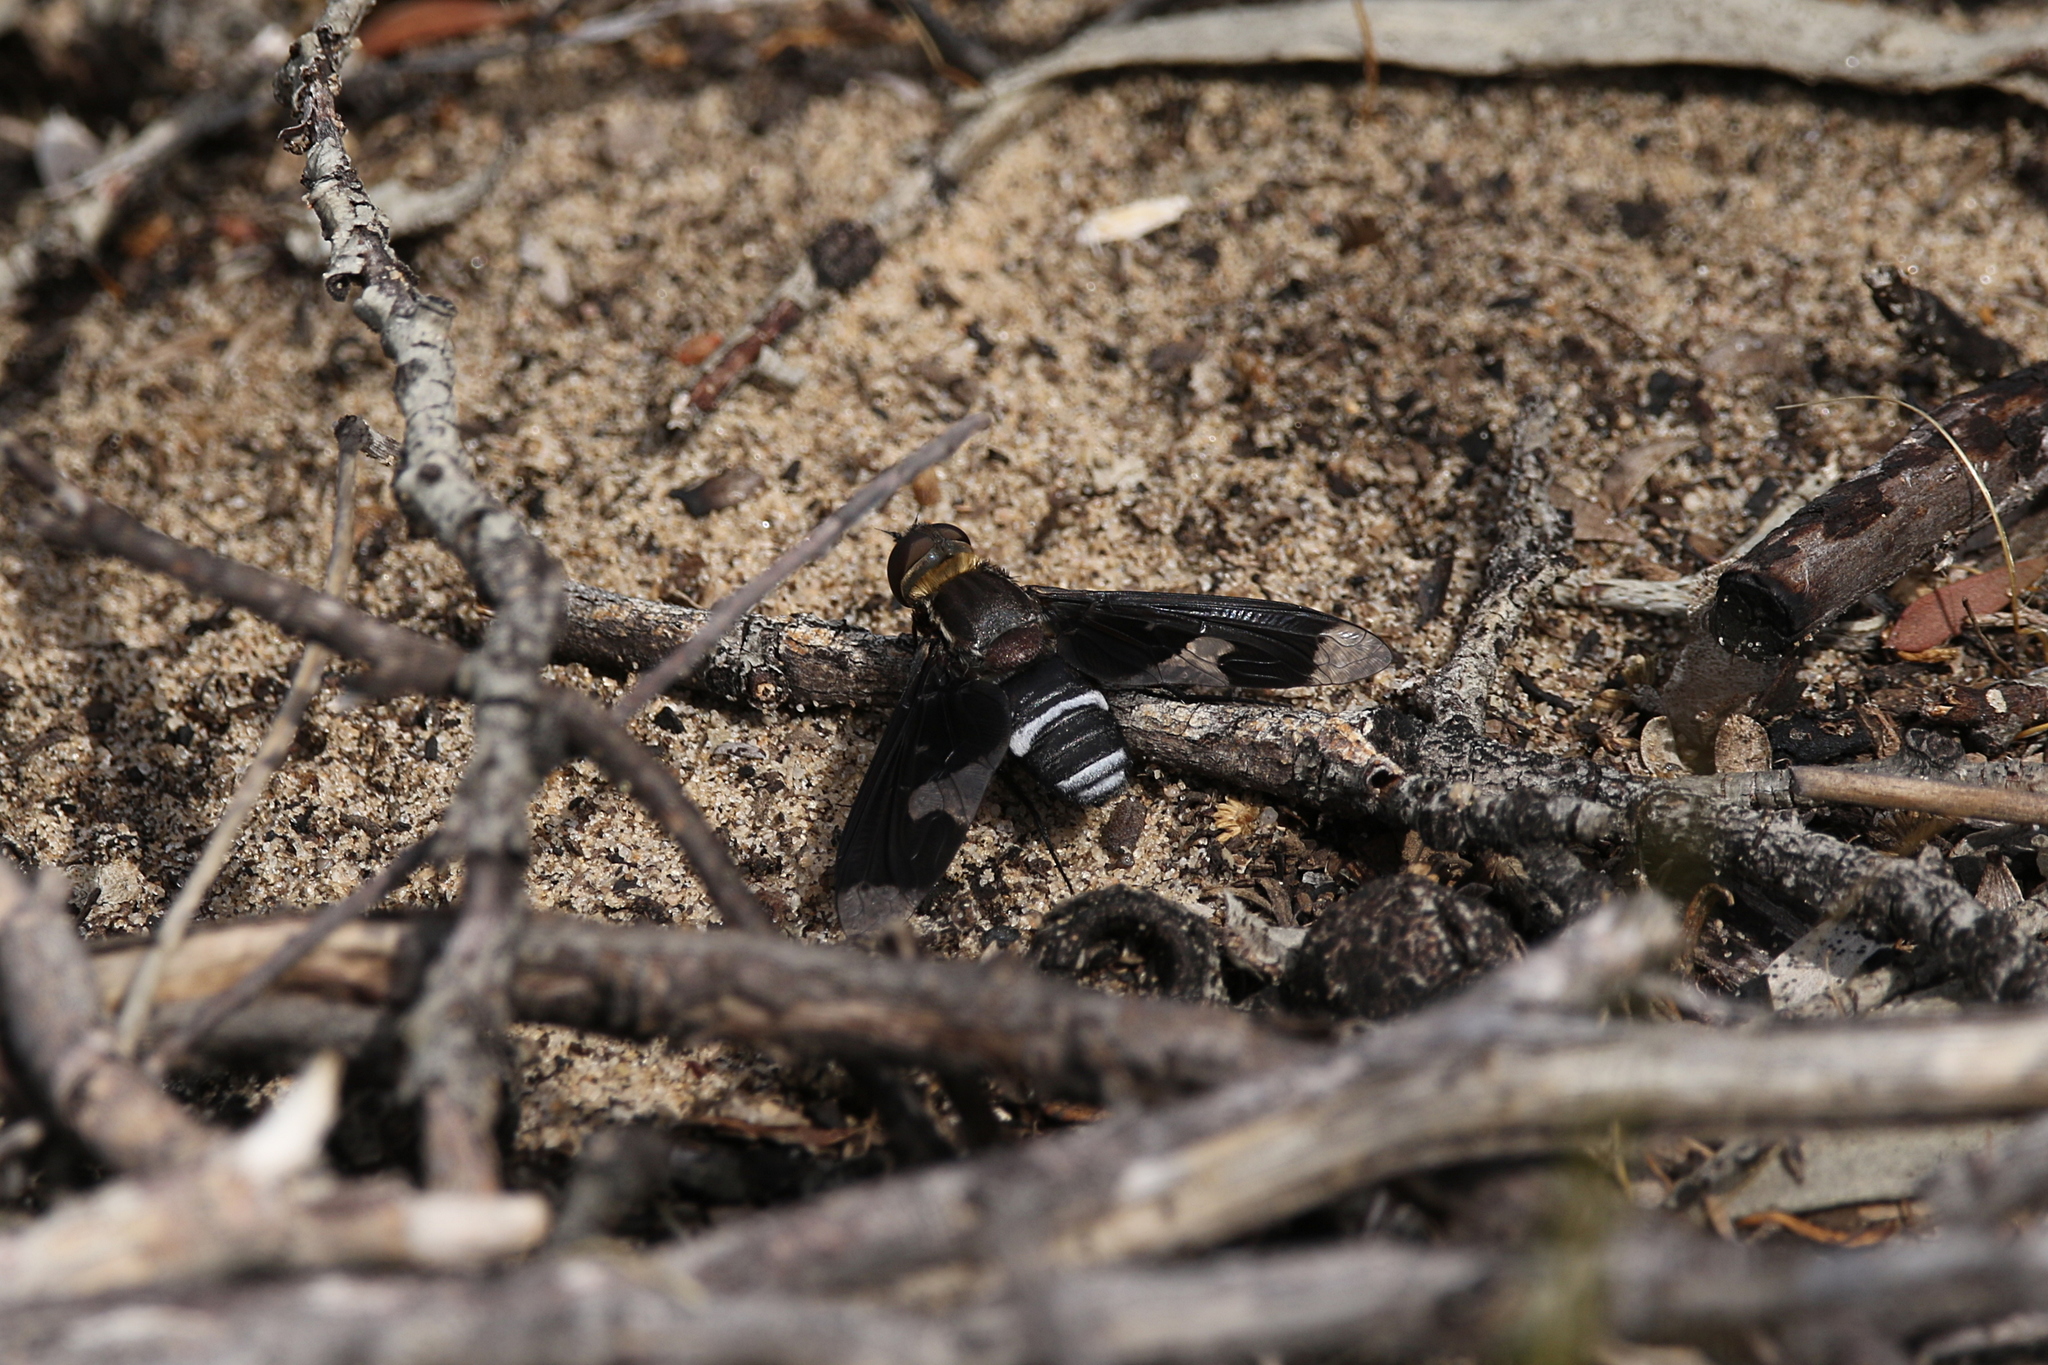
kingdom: Animalia
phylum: Arthropoda
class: Insecta
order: Diptera
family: Bombyliidae
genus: Balaana
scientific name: Balaana centrosa
